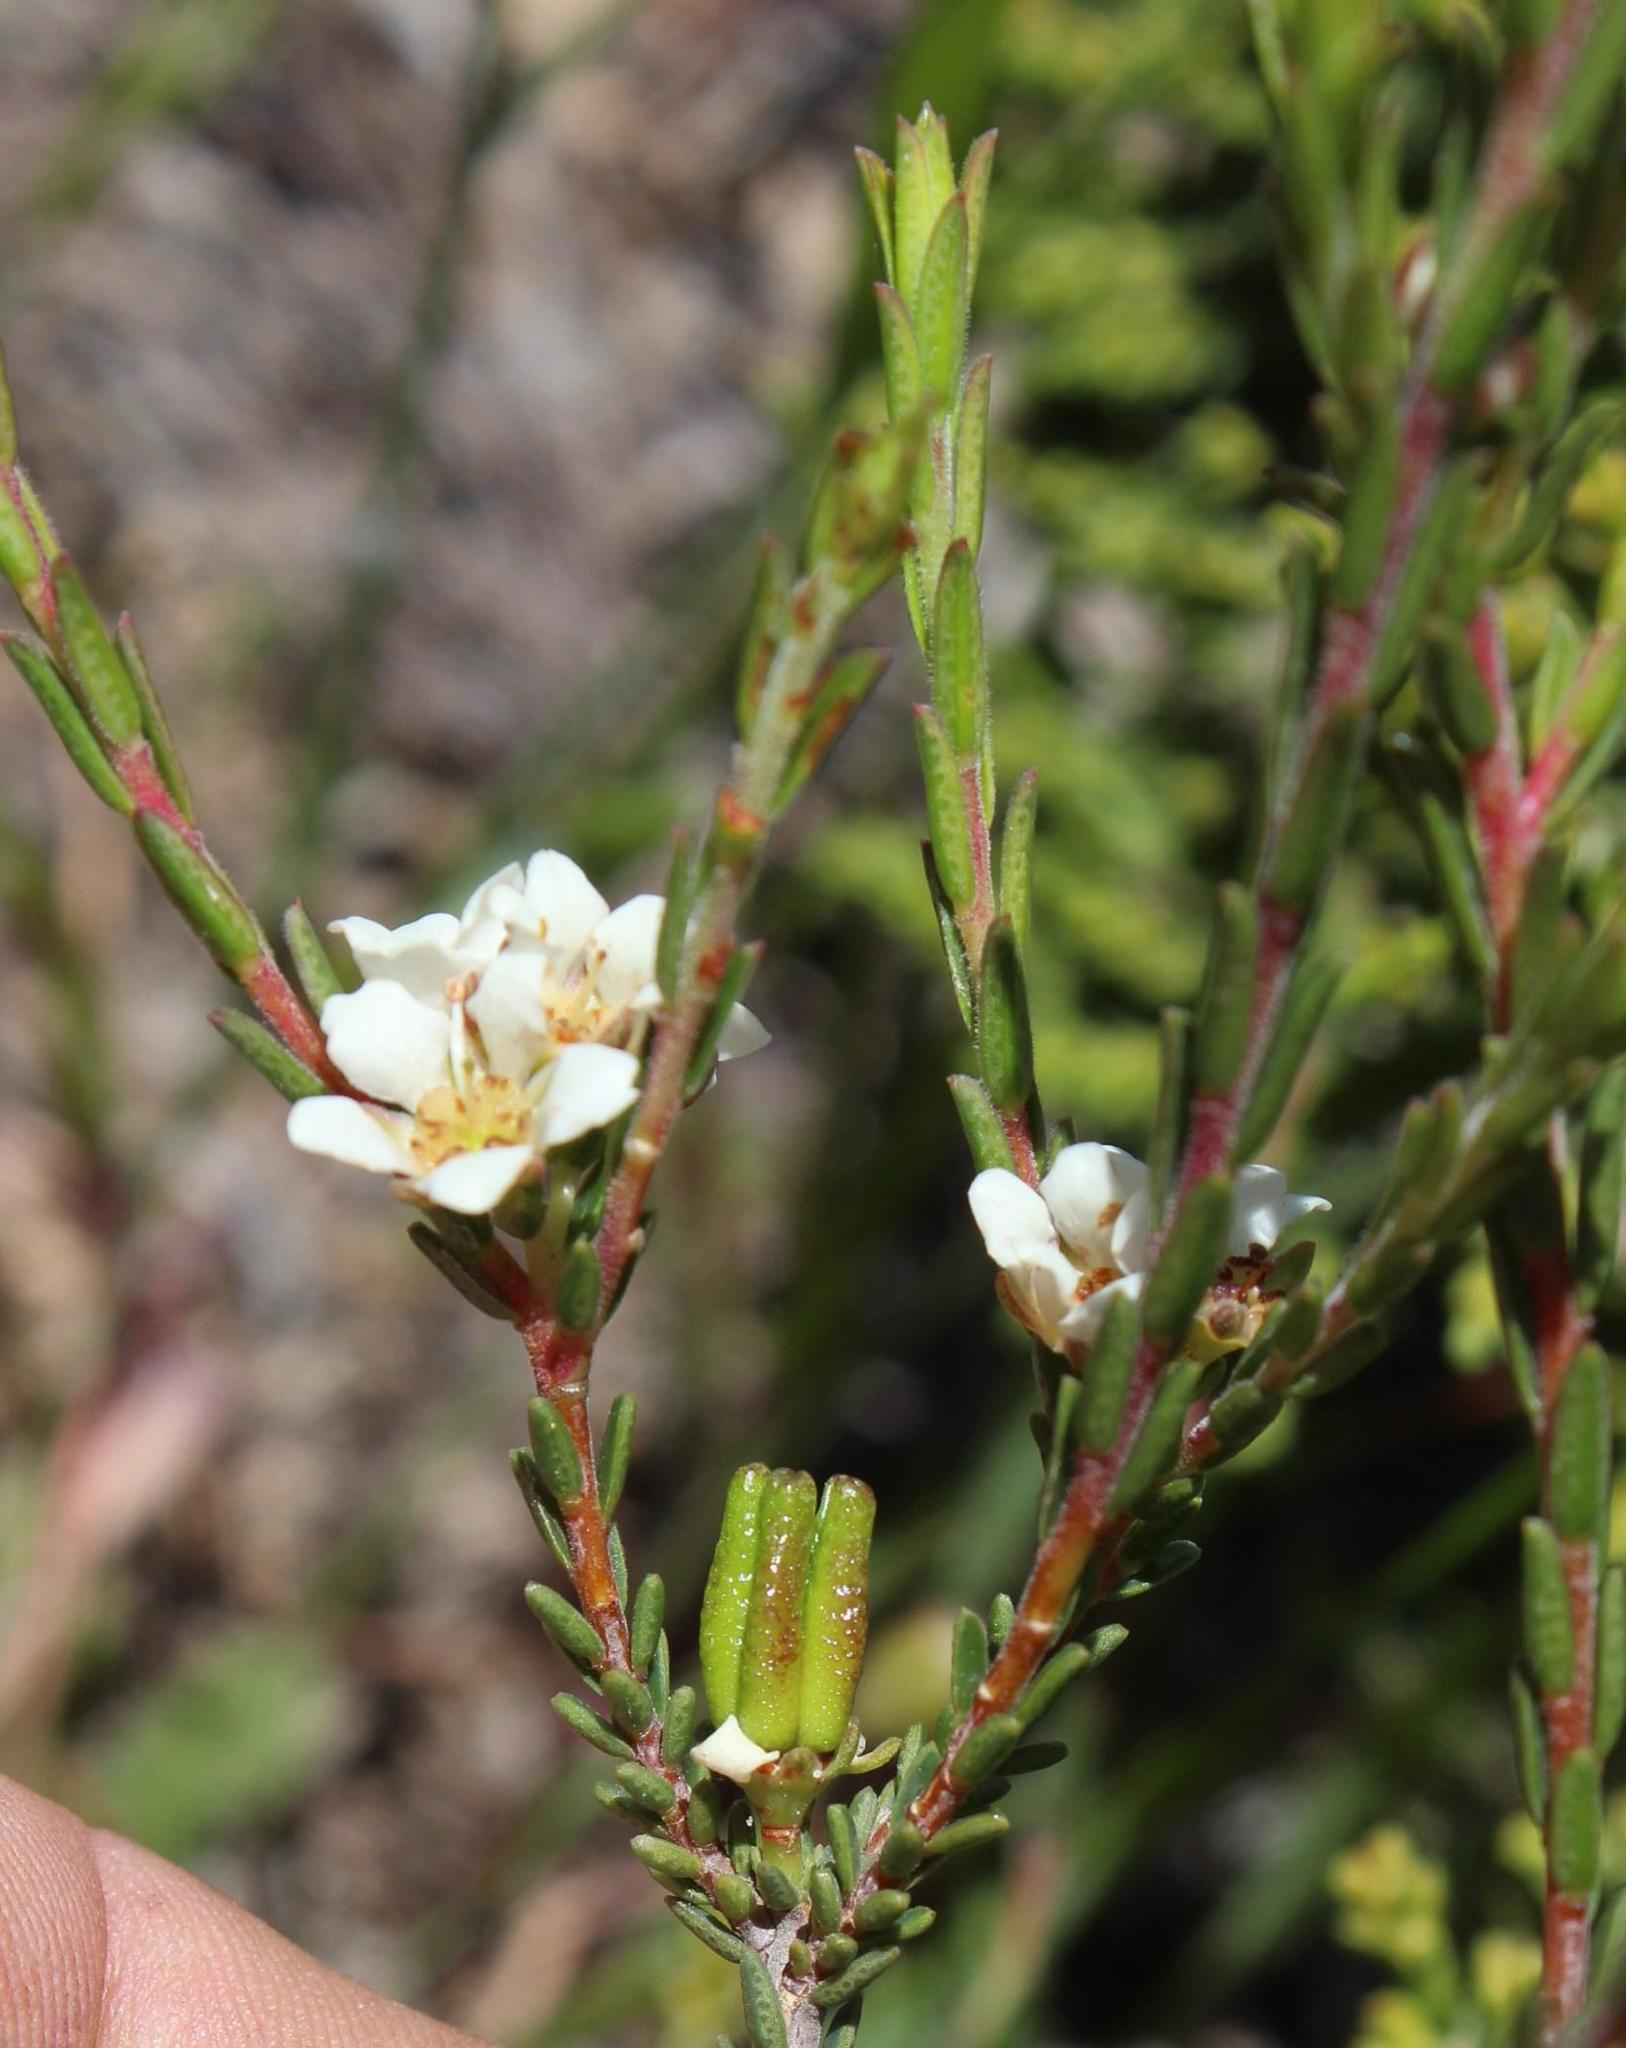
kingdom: Plantae
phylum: Tracheophyta
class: Magnoliopsida
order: Sapindales
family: Rutaceae
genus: Diosma
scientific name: Diosma aspalathoides
